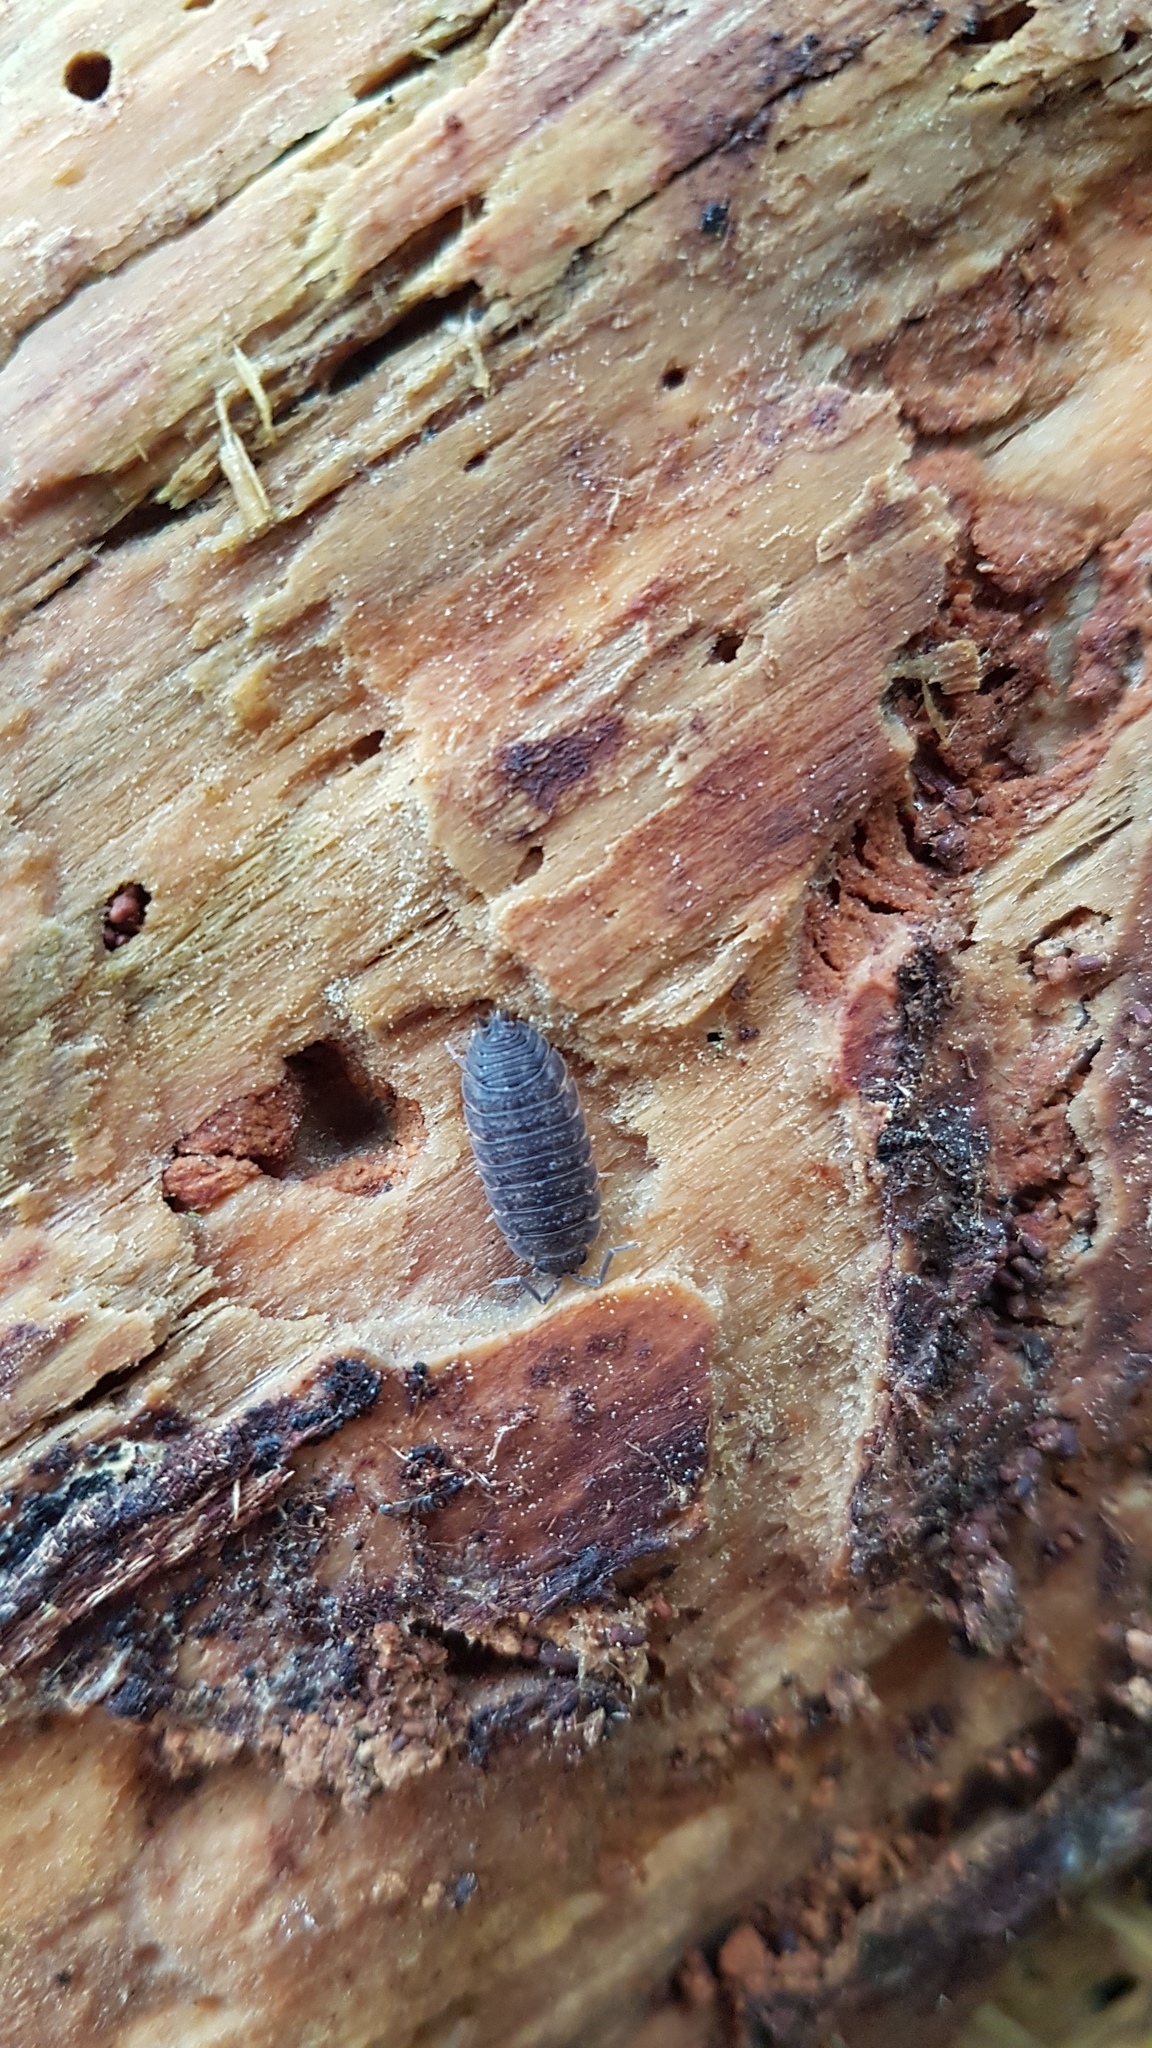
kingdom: Animalia
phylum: Arthropoda
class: Malacostraca
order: Isopoda
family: Porcellionidae
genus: Porcellio
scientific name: Porcellio scaber
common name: Common rough woodlouse
